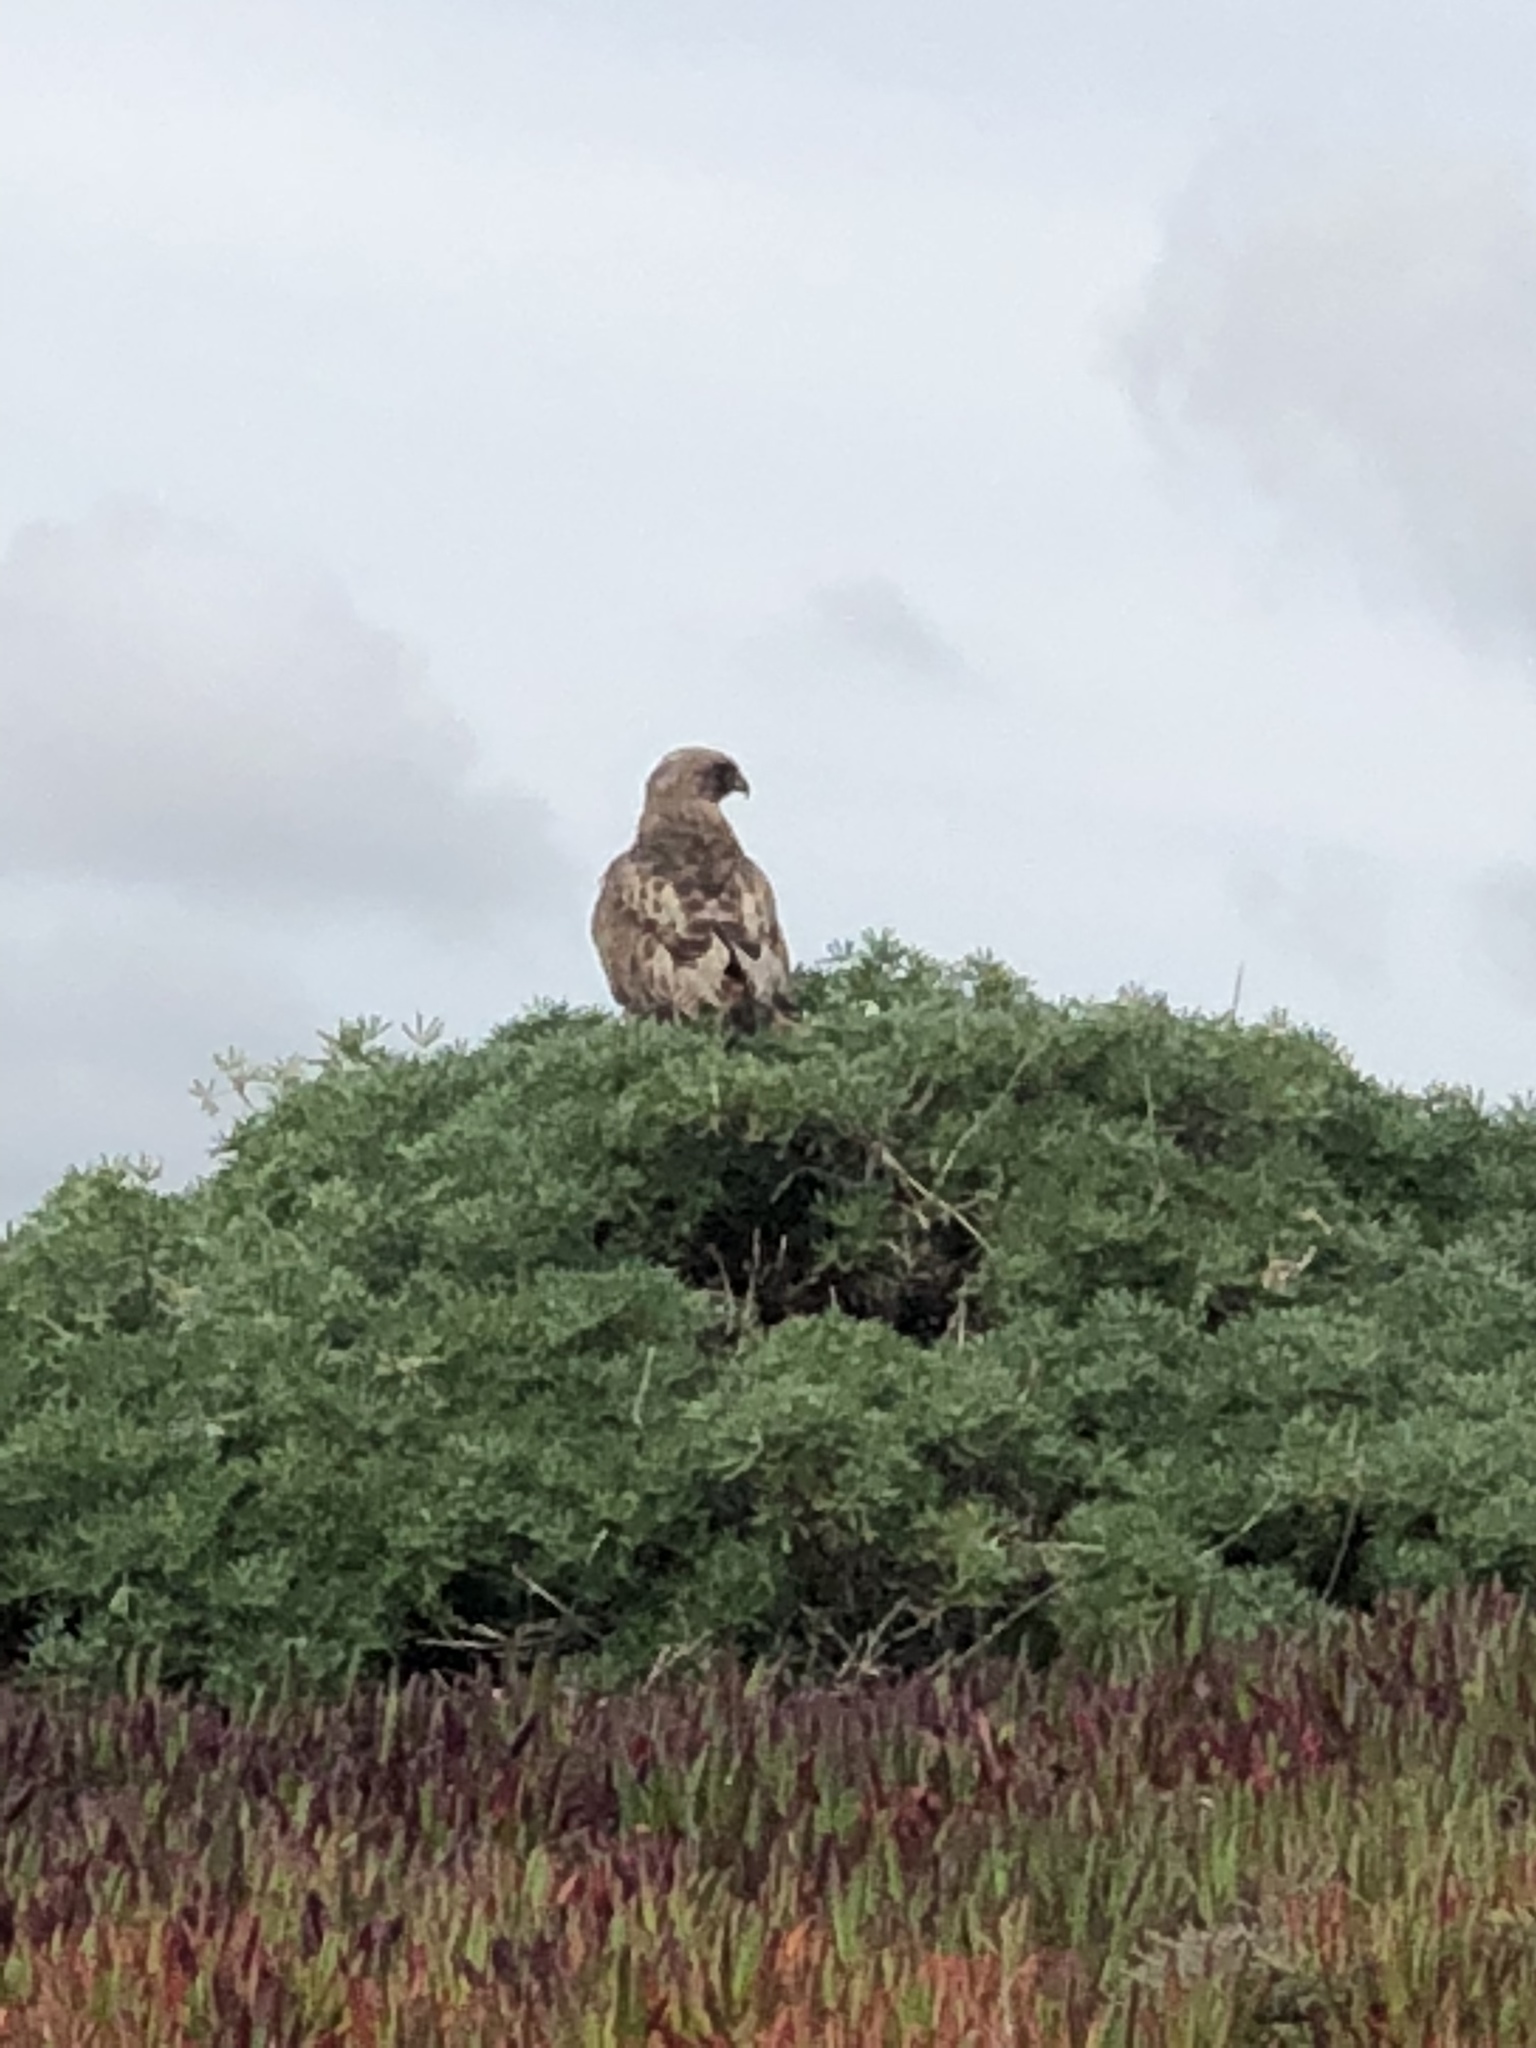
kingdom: Animalia
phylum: Chordata
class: Aves
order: Accipitriformes
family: Accipitridae
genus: Buteo
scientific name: Buteo jamaicensis
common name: Red-tailed hawk
